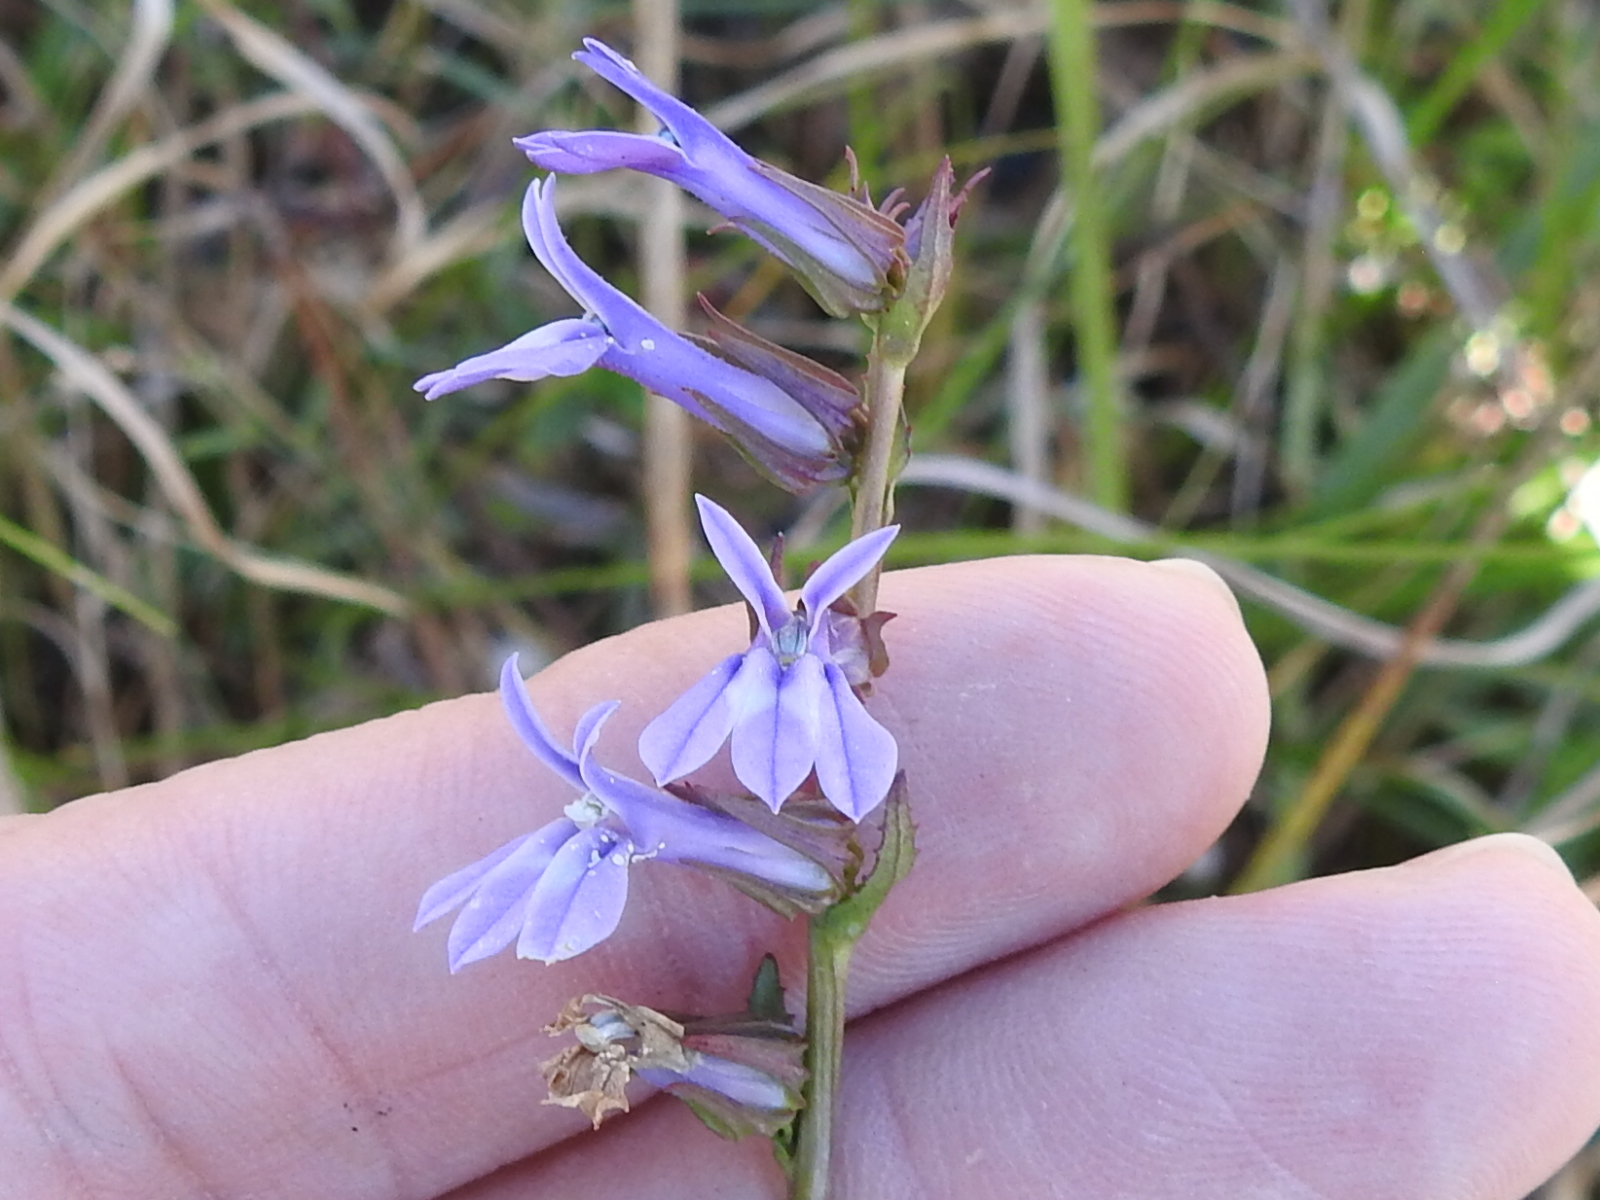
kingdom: Plantae
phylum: Tracheophyta
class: Magnoliopsida
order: Asterales
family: Campanulaceae
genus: Lobelia
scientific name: Lobelia puberula
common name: Purple dewdrop
